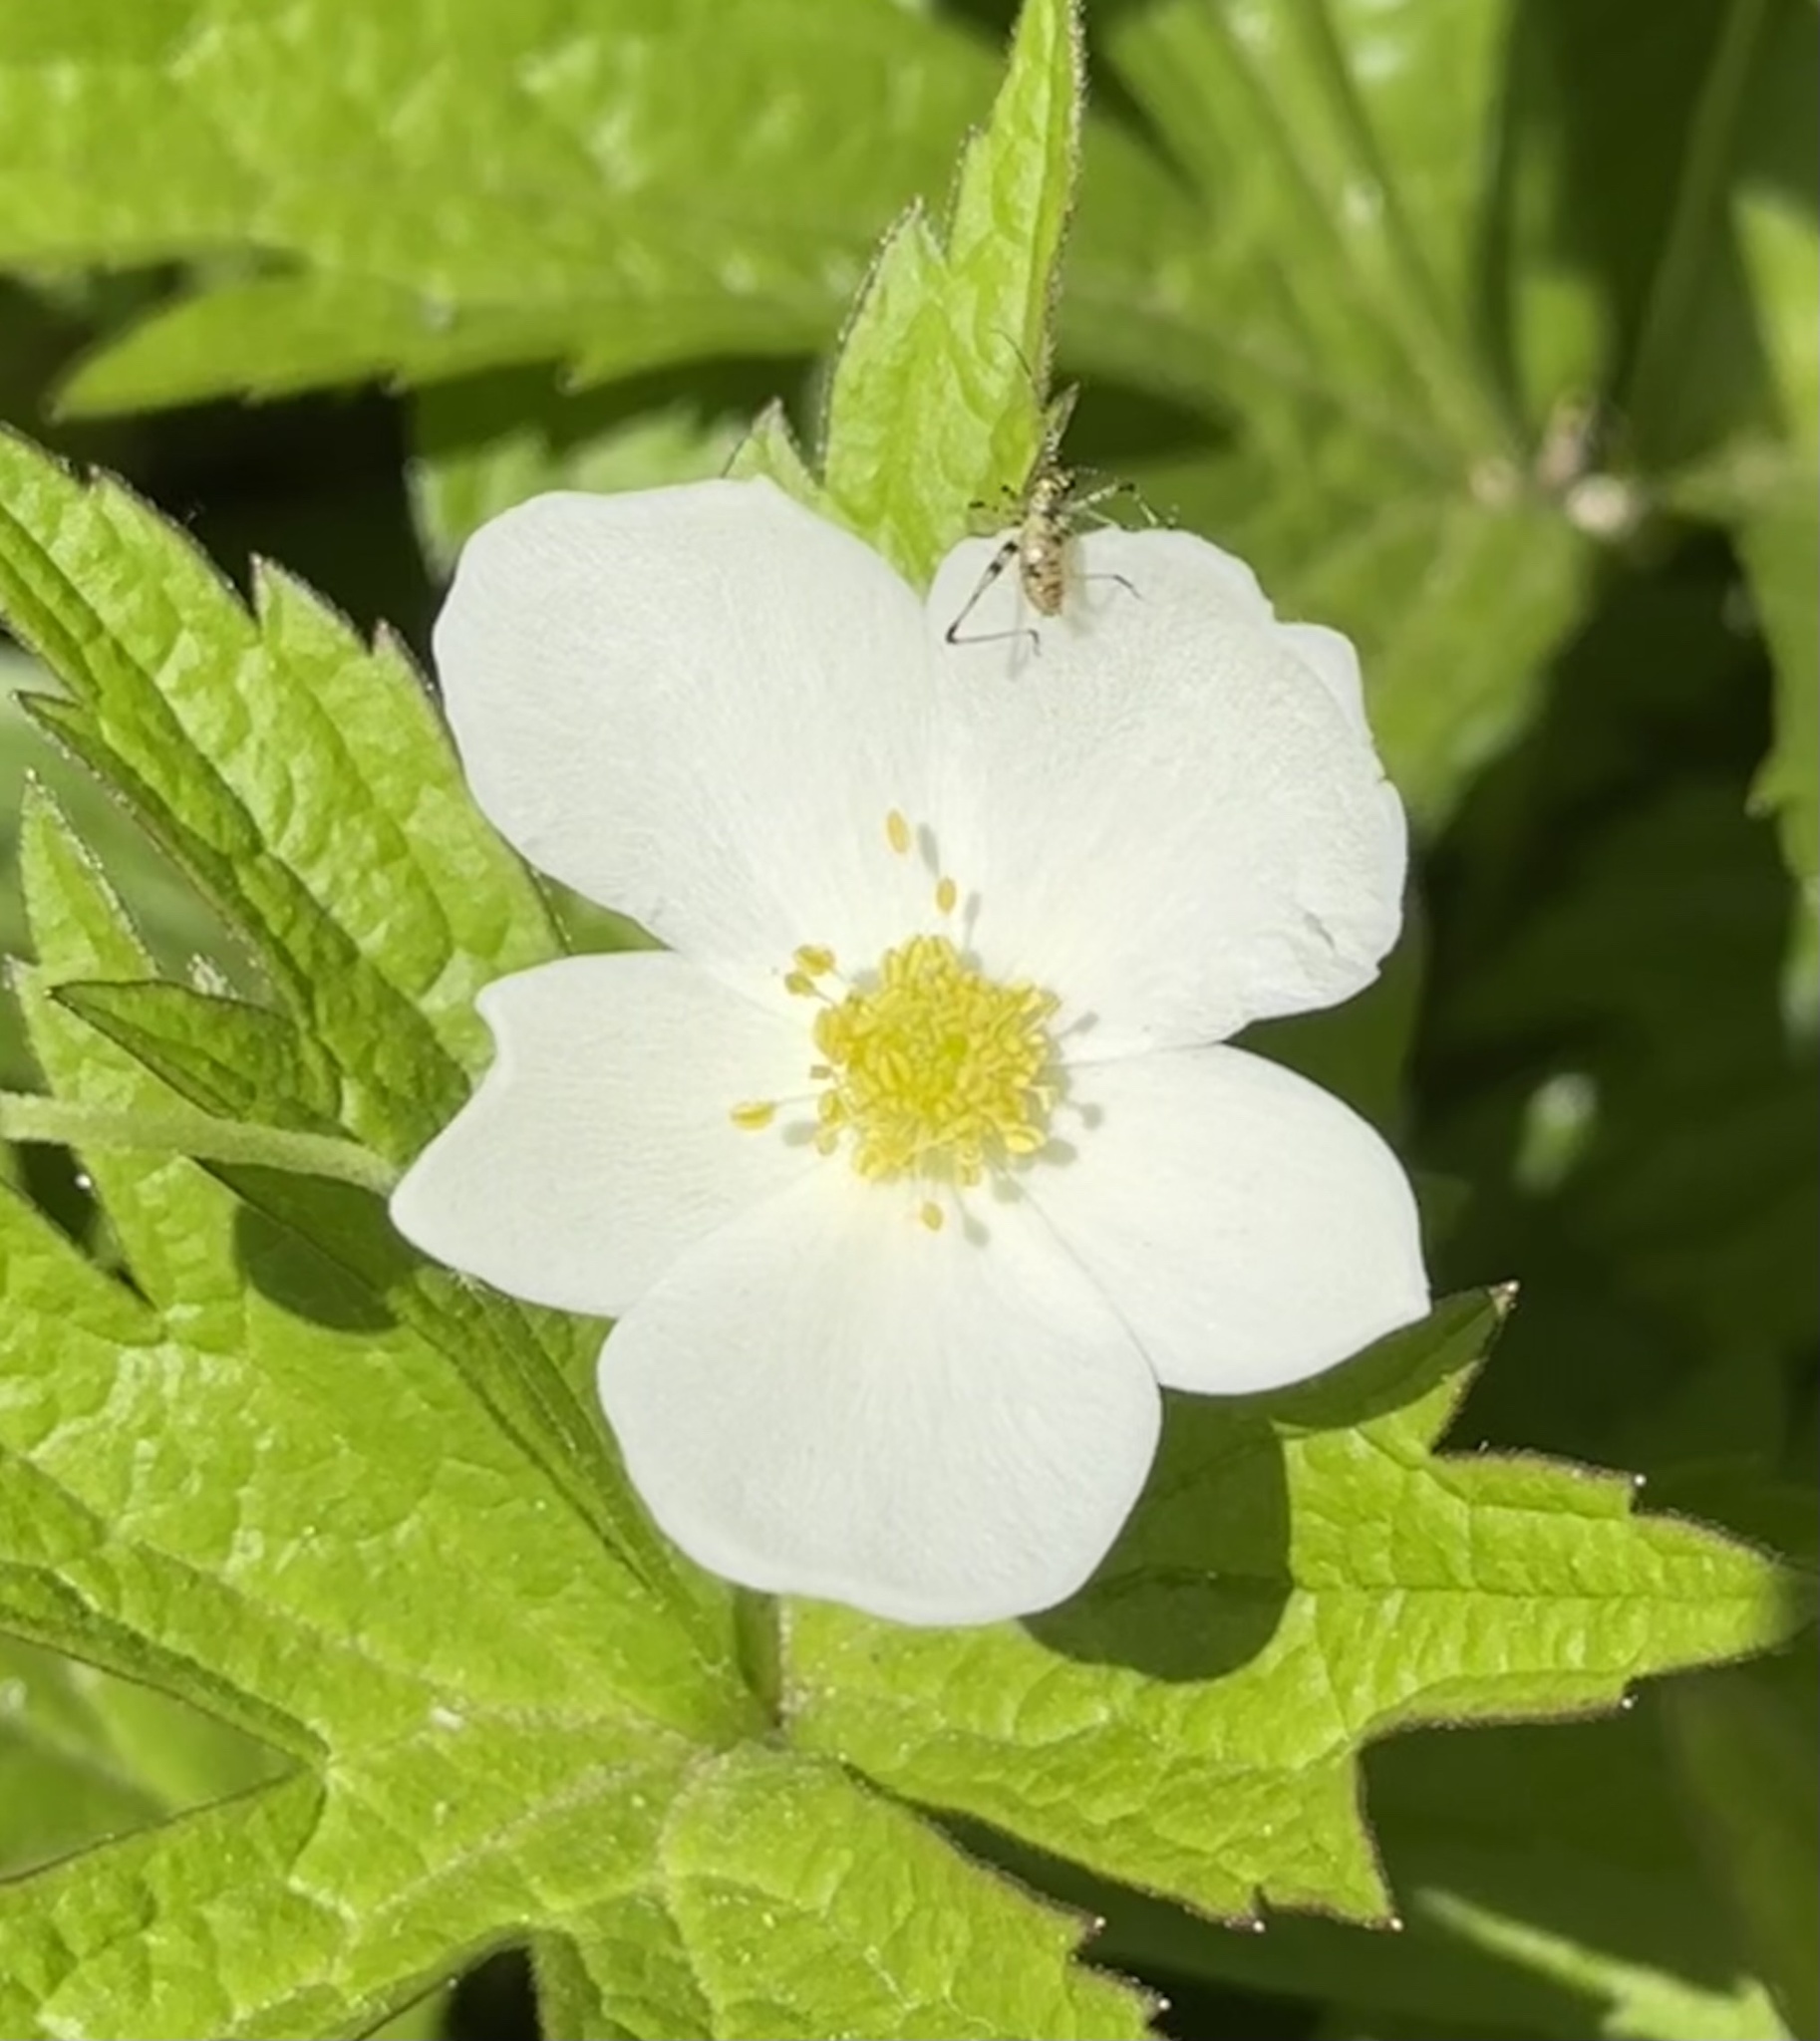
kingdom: Animalia
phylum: Arthropoda
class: Insecta
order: Orthoptera
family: Tettigoniidae
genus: Phaneroptera
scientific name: Phaneroptera nana
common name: Southern sickle bush-cricket
